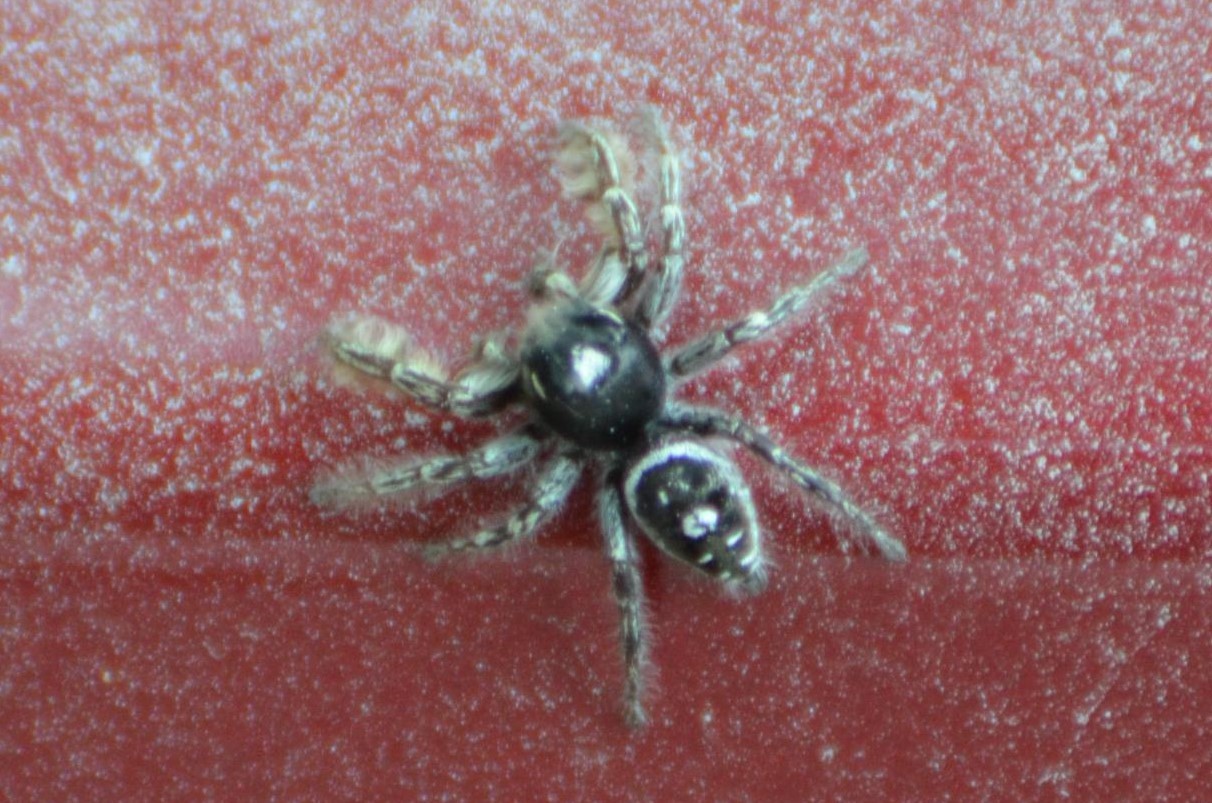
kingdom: Animalia
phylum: Arthropoda
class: Arachnida
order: Araneae
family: Salticidae
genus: Phidippus
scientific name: Phidippus putnami
